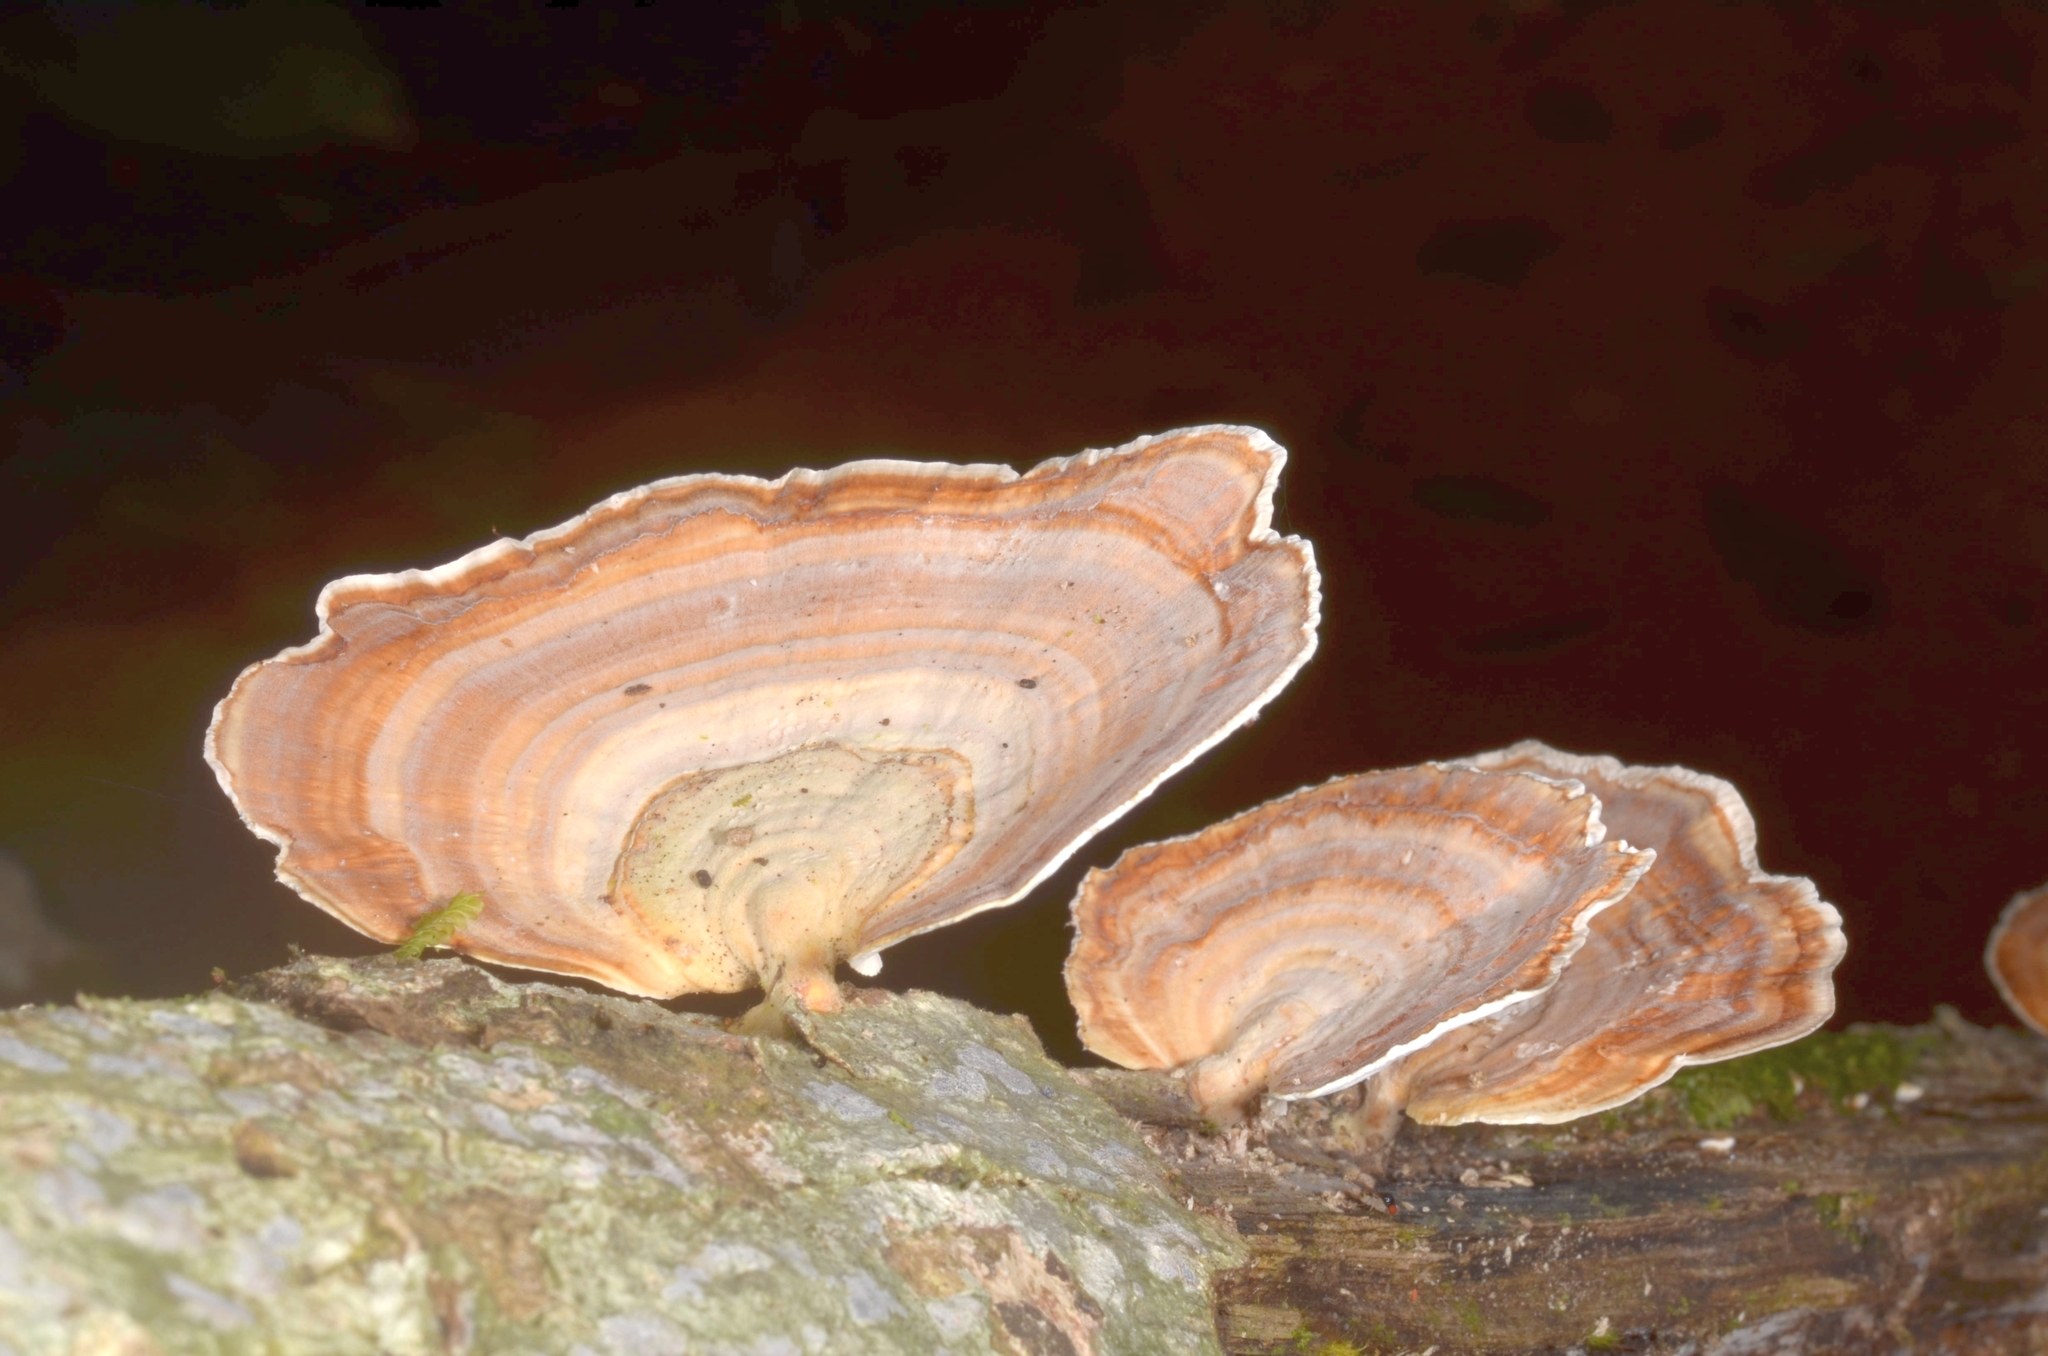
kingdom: Fungi
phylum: Basidiomycota
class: Agaricomycetes
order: Polyporales
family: Polyporaceae
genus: Microporus
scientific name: Microporus affinis
